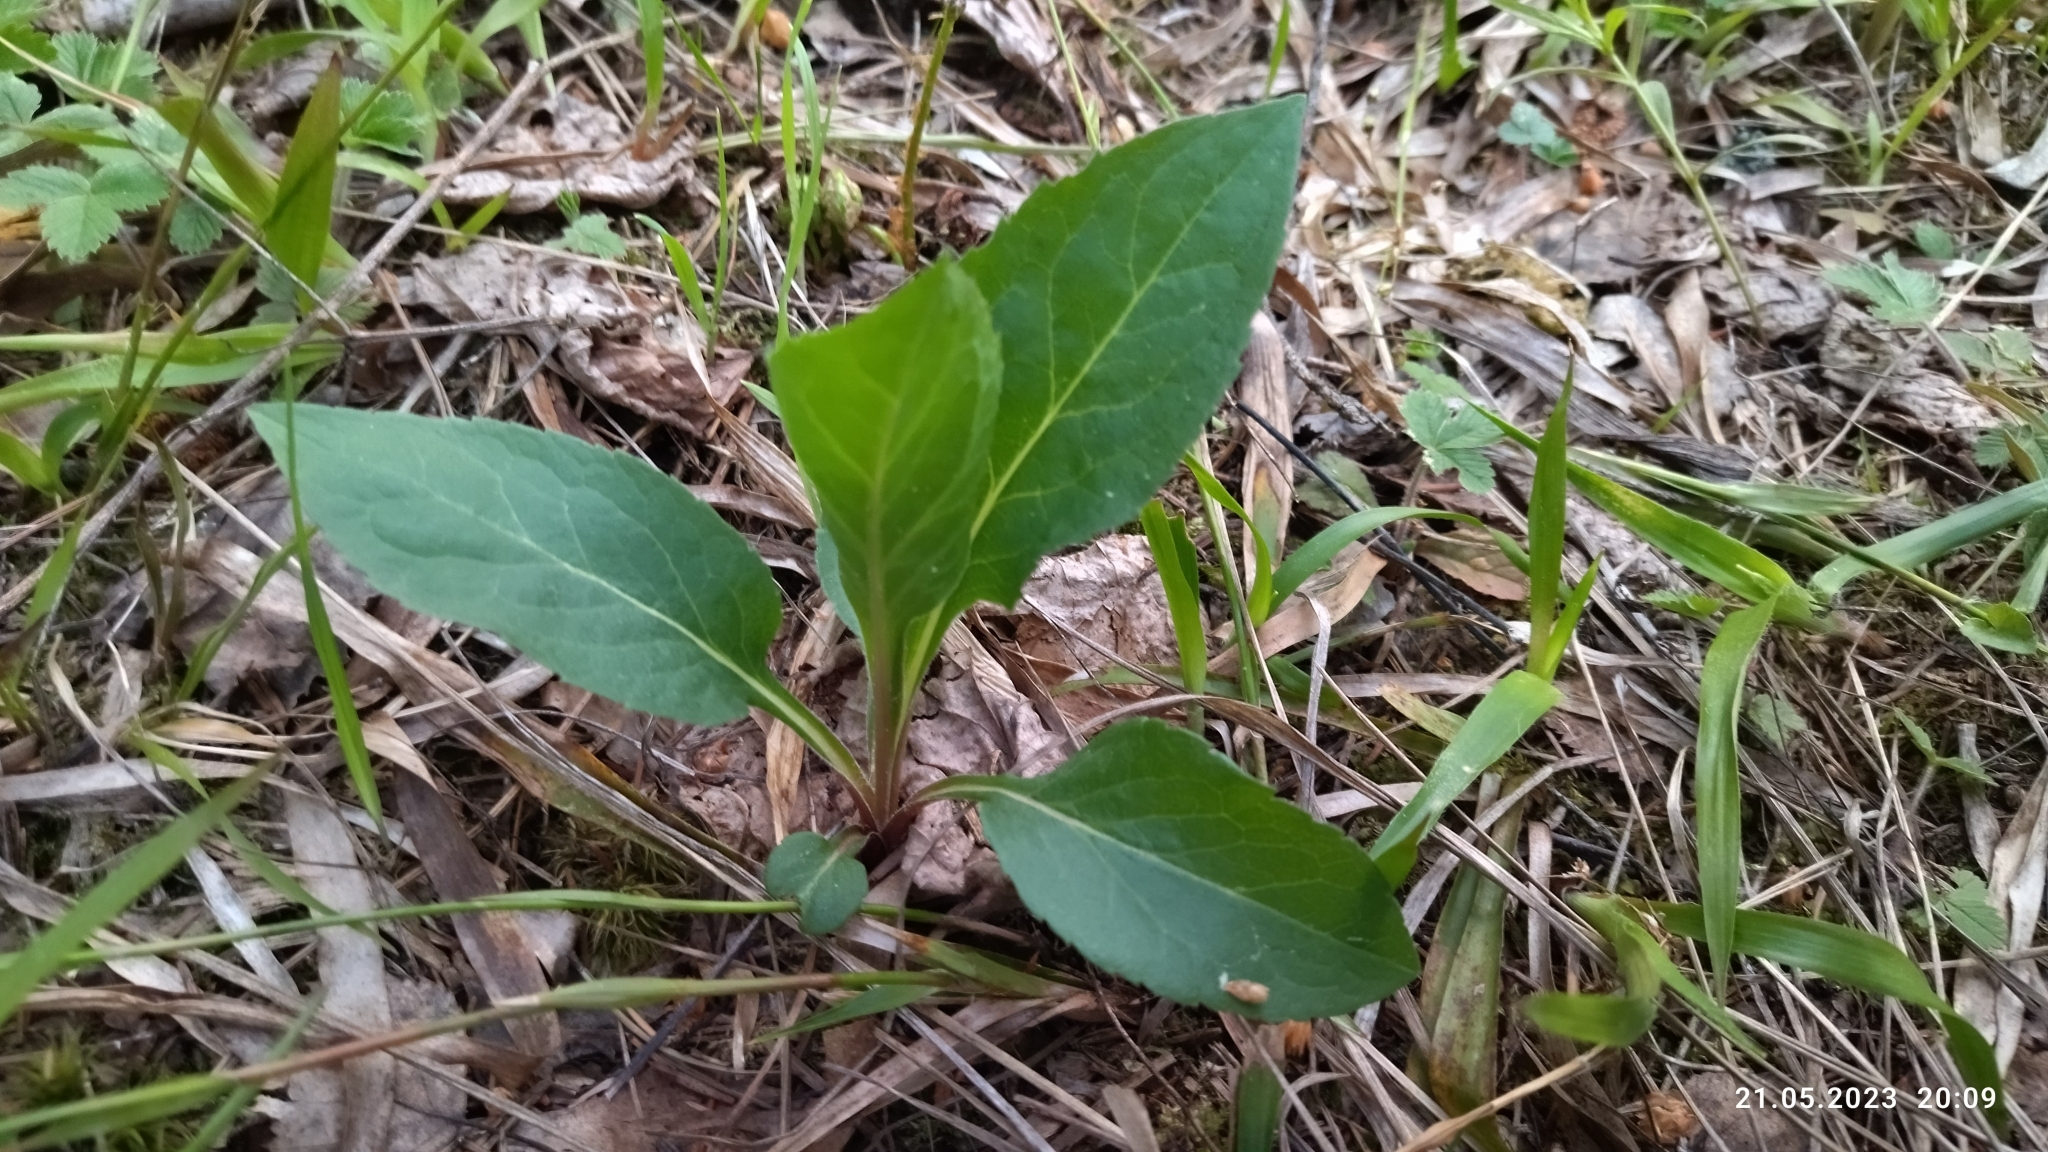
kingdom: Plantae
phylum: Tracheophyta
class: Magnoliopsida
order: Asterales
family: Asteraceae
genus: Solidago
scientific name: Solidago virgaurea
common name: Goldenrod
